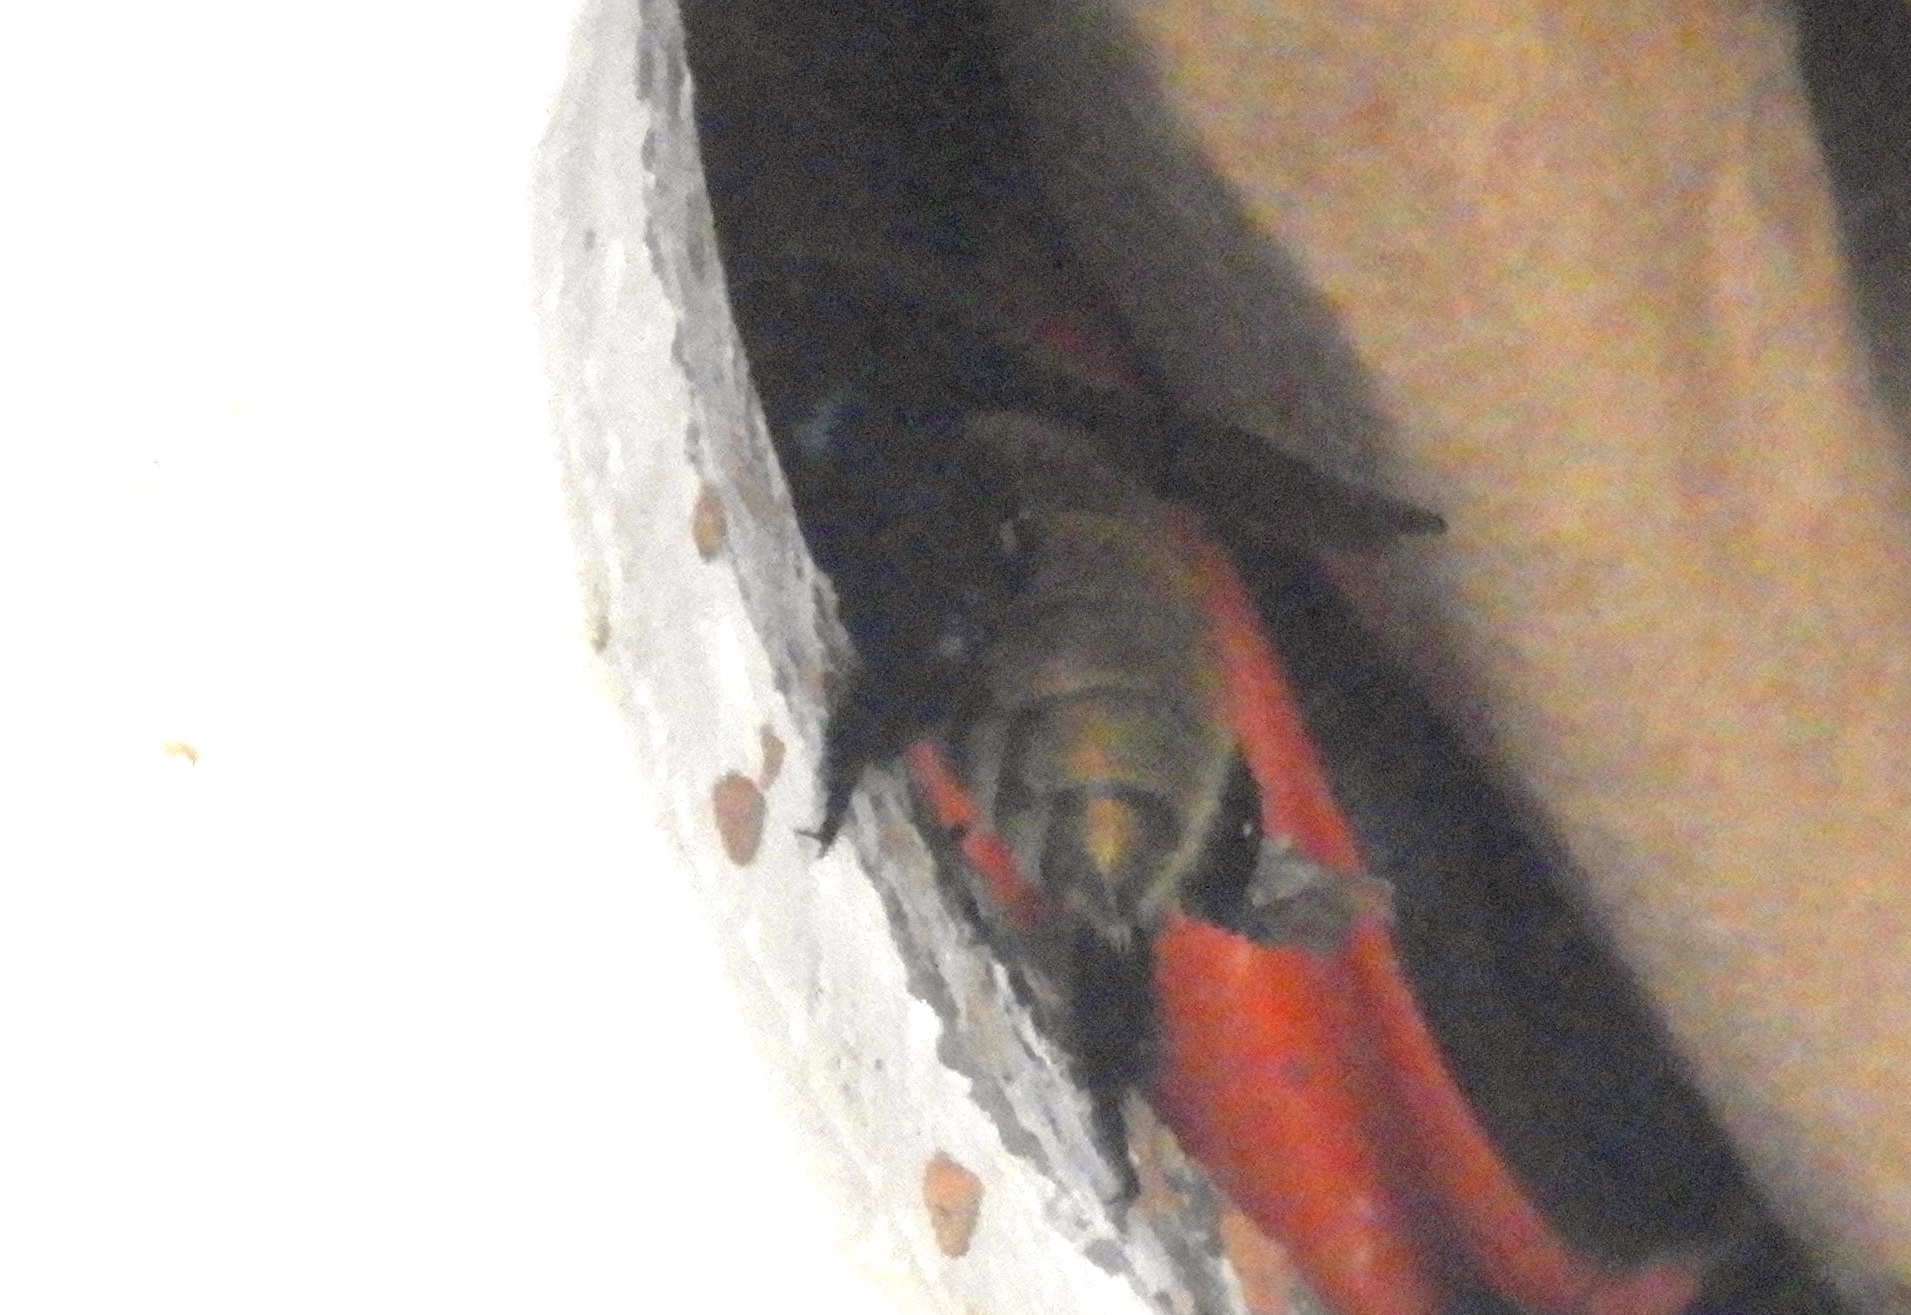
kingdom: Animalia
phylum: Arthropoda
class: Insecta
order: Hymenoptera
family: Apidae
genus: Apidae
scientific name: Apidae
